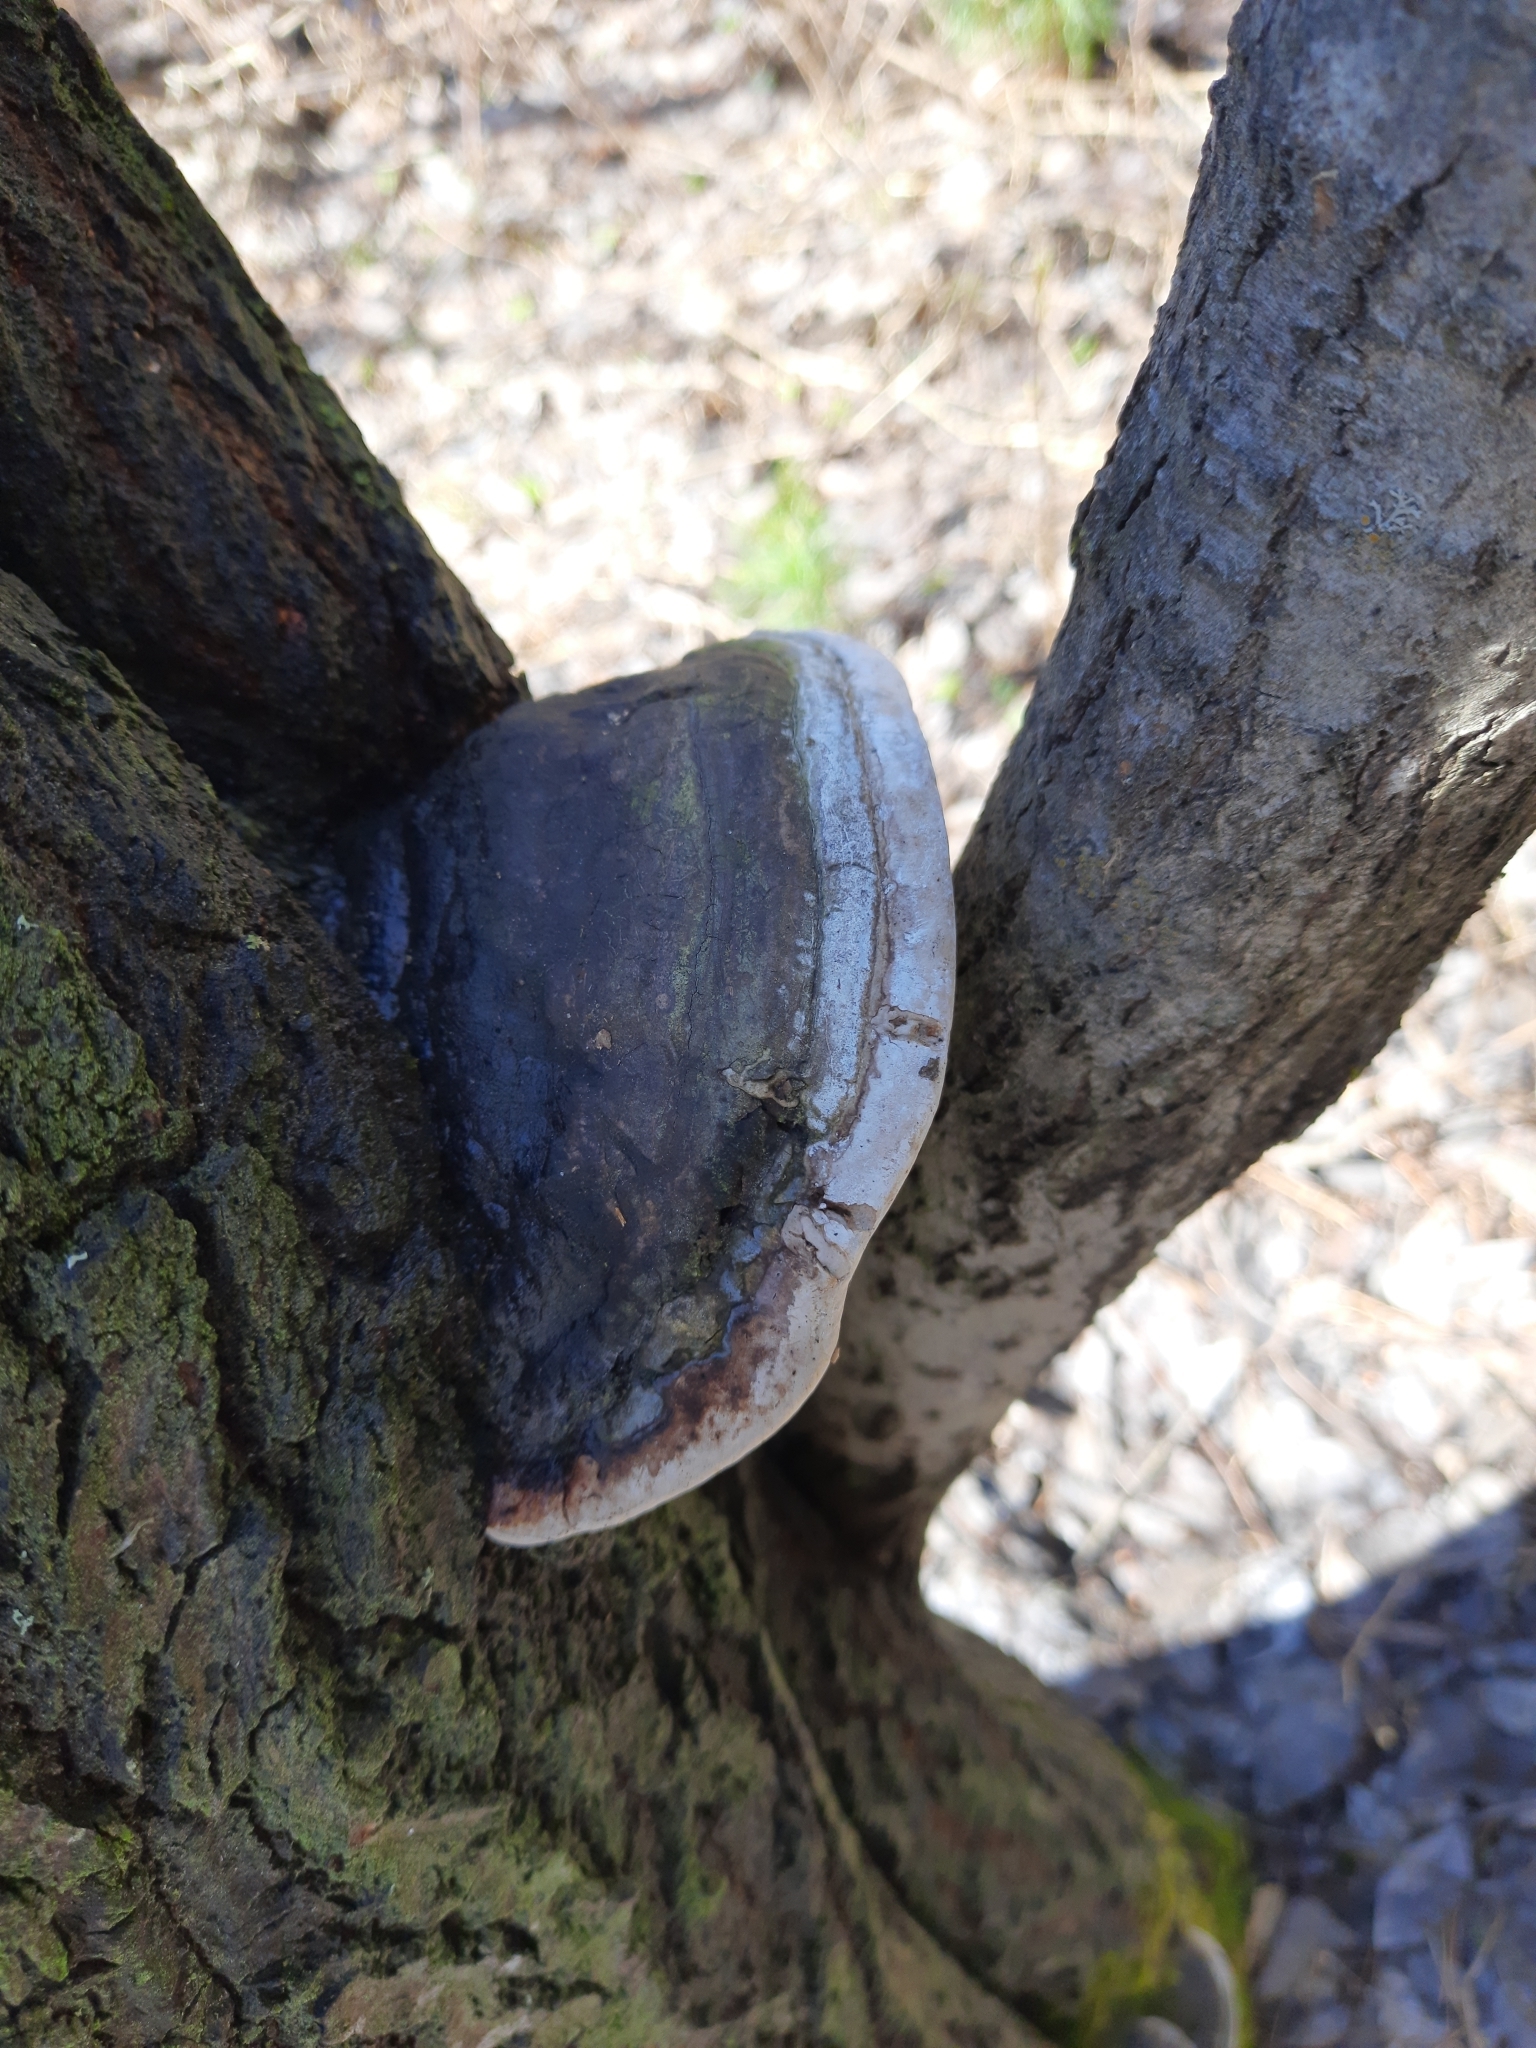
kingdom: Fungi
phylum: Basidiomycota
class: Agaricomycetes
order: Hymenochaetales
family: Hymenochaetaceae
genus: Phellinus
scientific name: Phellinus igniarius
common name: Willow bracket
